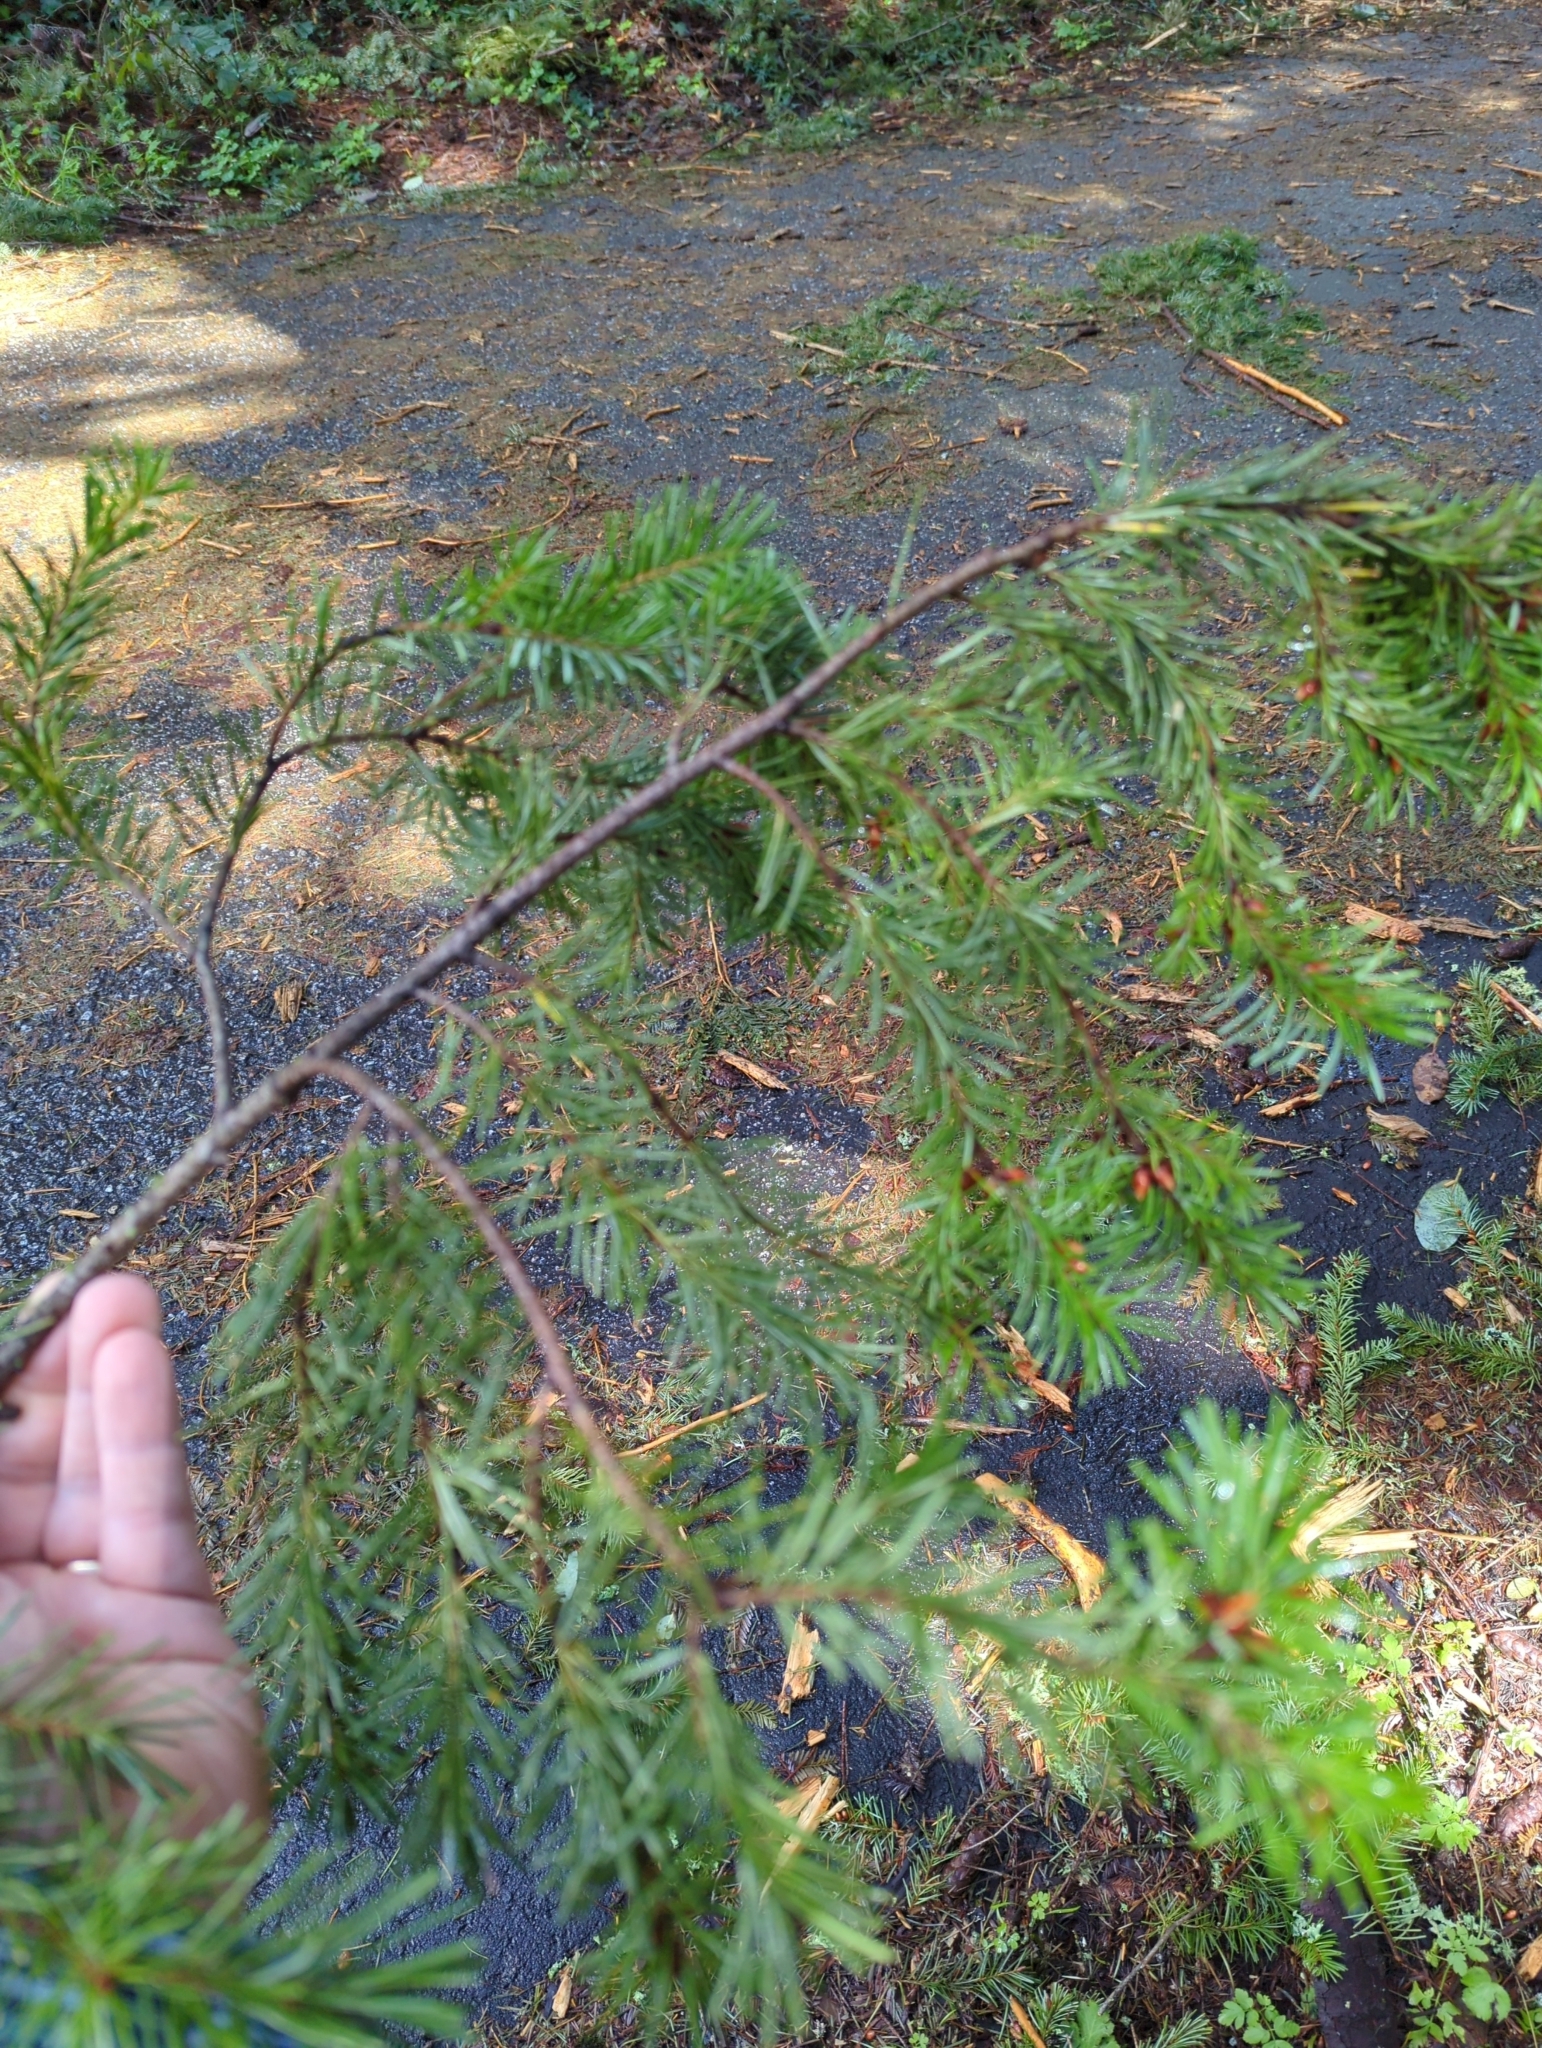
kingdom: Plantae
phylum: Tracheophyta
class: Pinopsida
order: Pinales
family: Pinaceae
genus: Pseudotsuga
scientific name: Pseudotsuga menziesii
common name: Douglas fir
